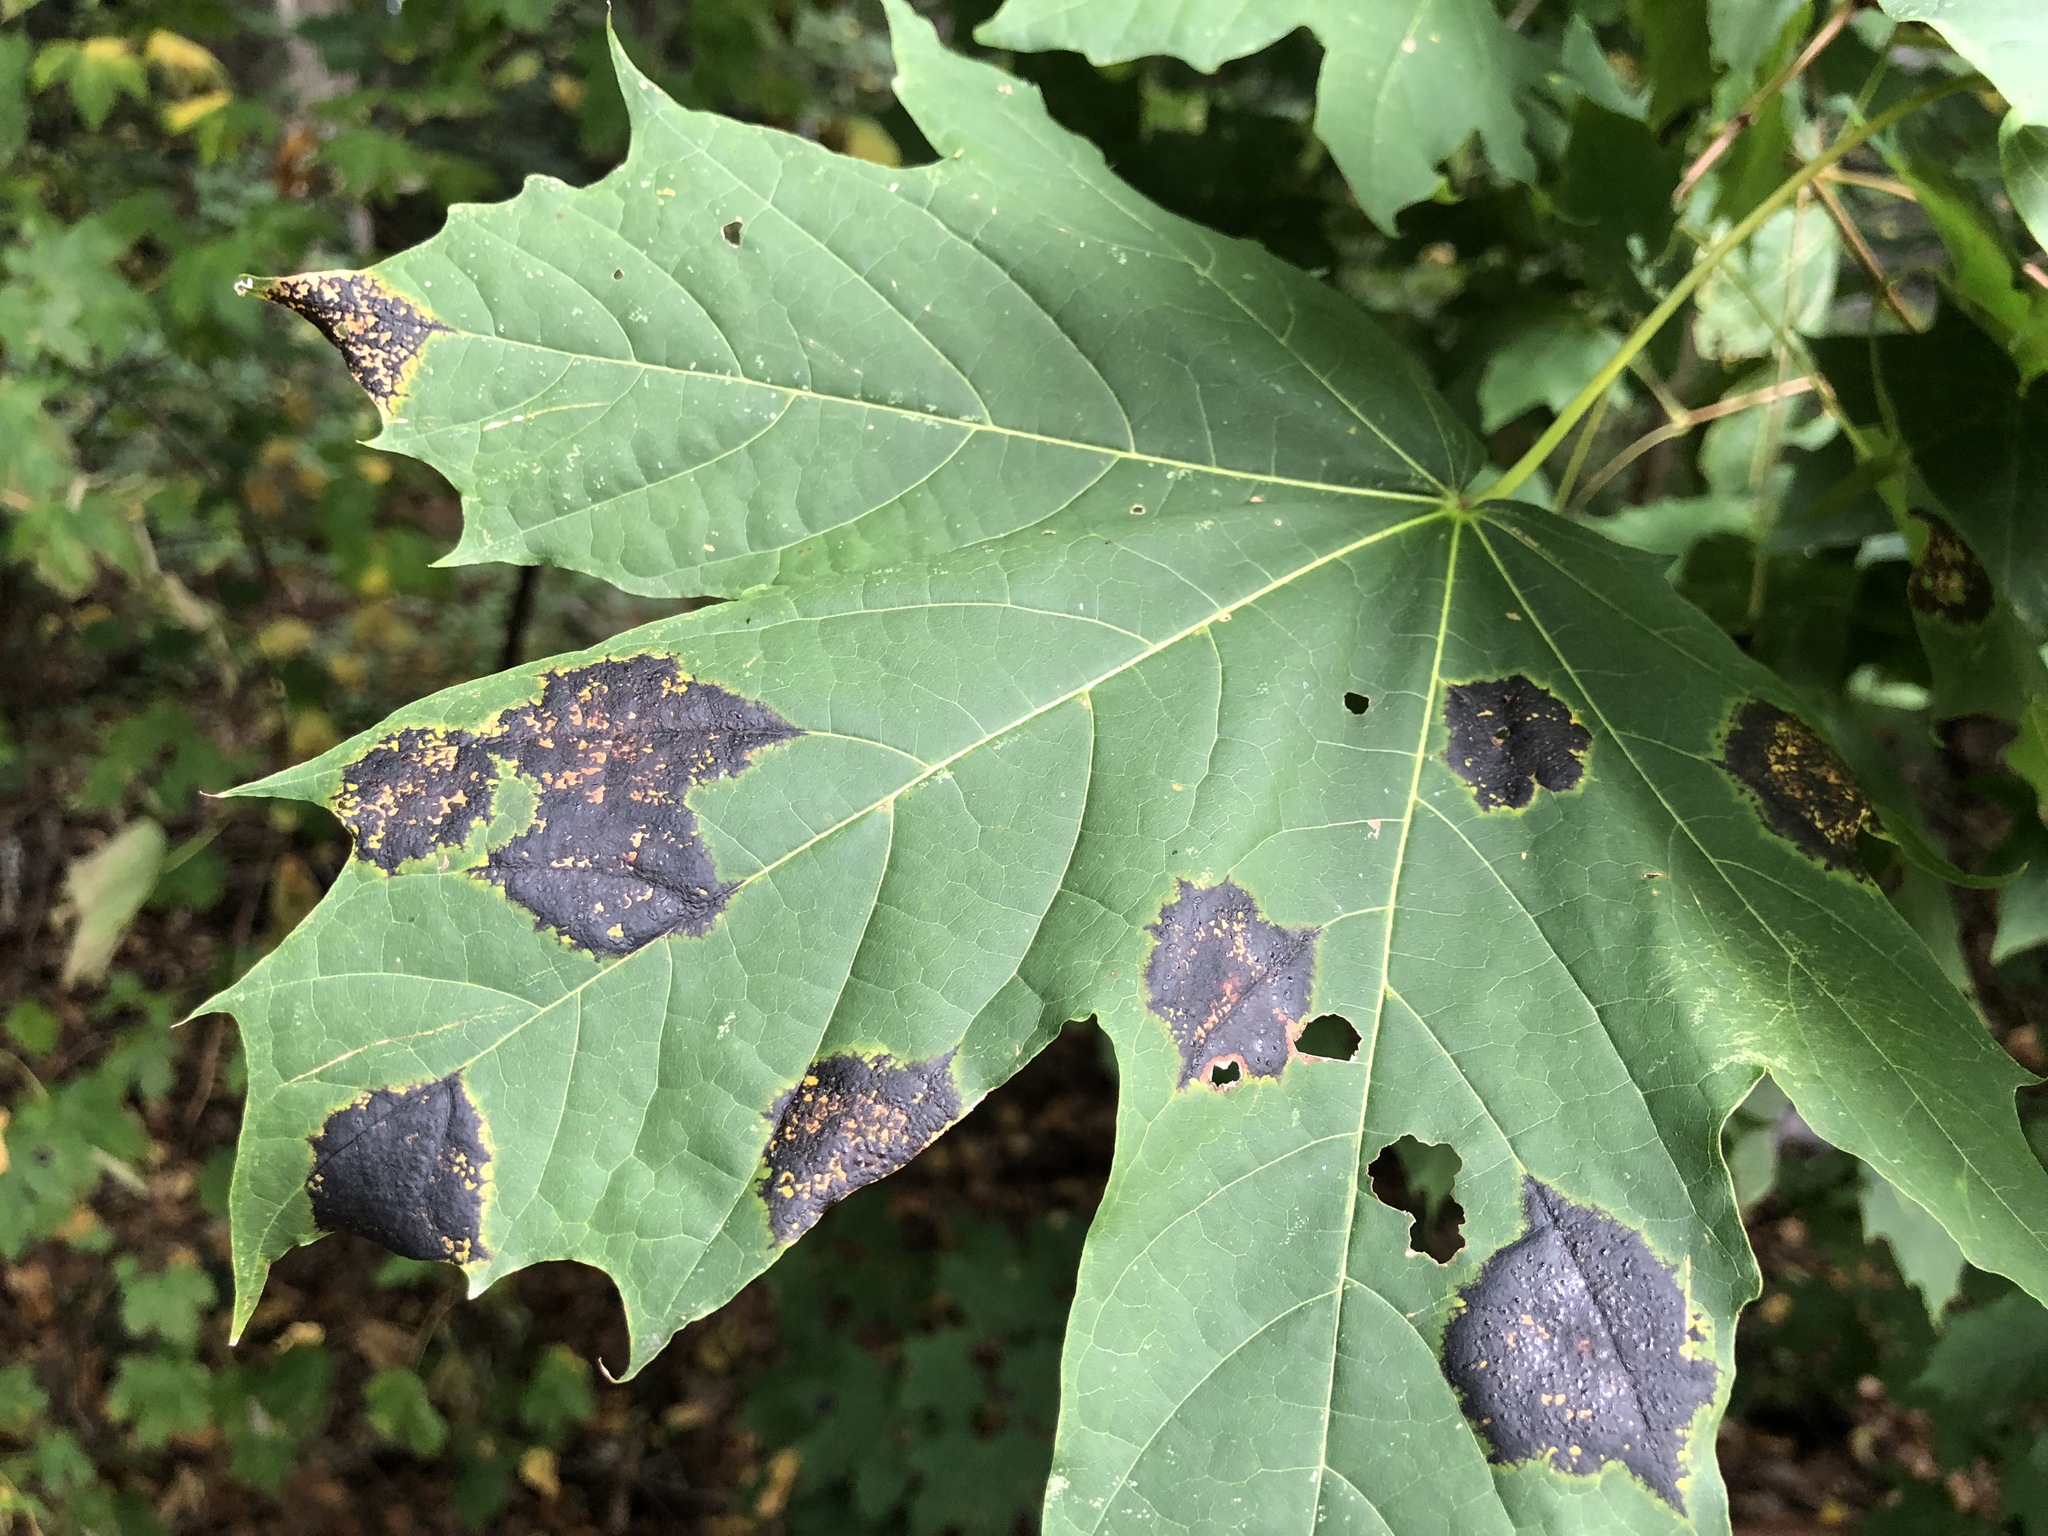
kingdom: Fungi
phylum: Ascomycota
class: Leotiomycetes
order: Rhytismatales
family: Rhytismataceae
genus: Rhytisma
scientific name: Rhytisma acerinum
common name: European tar spot
